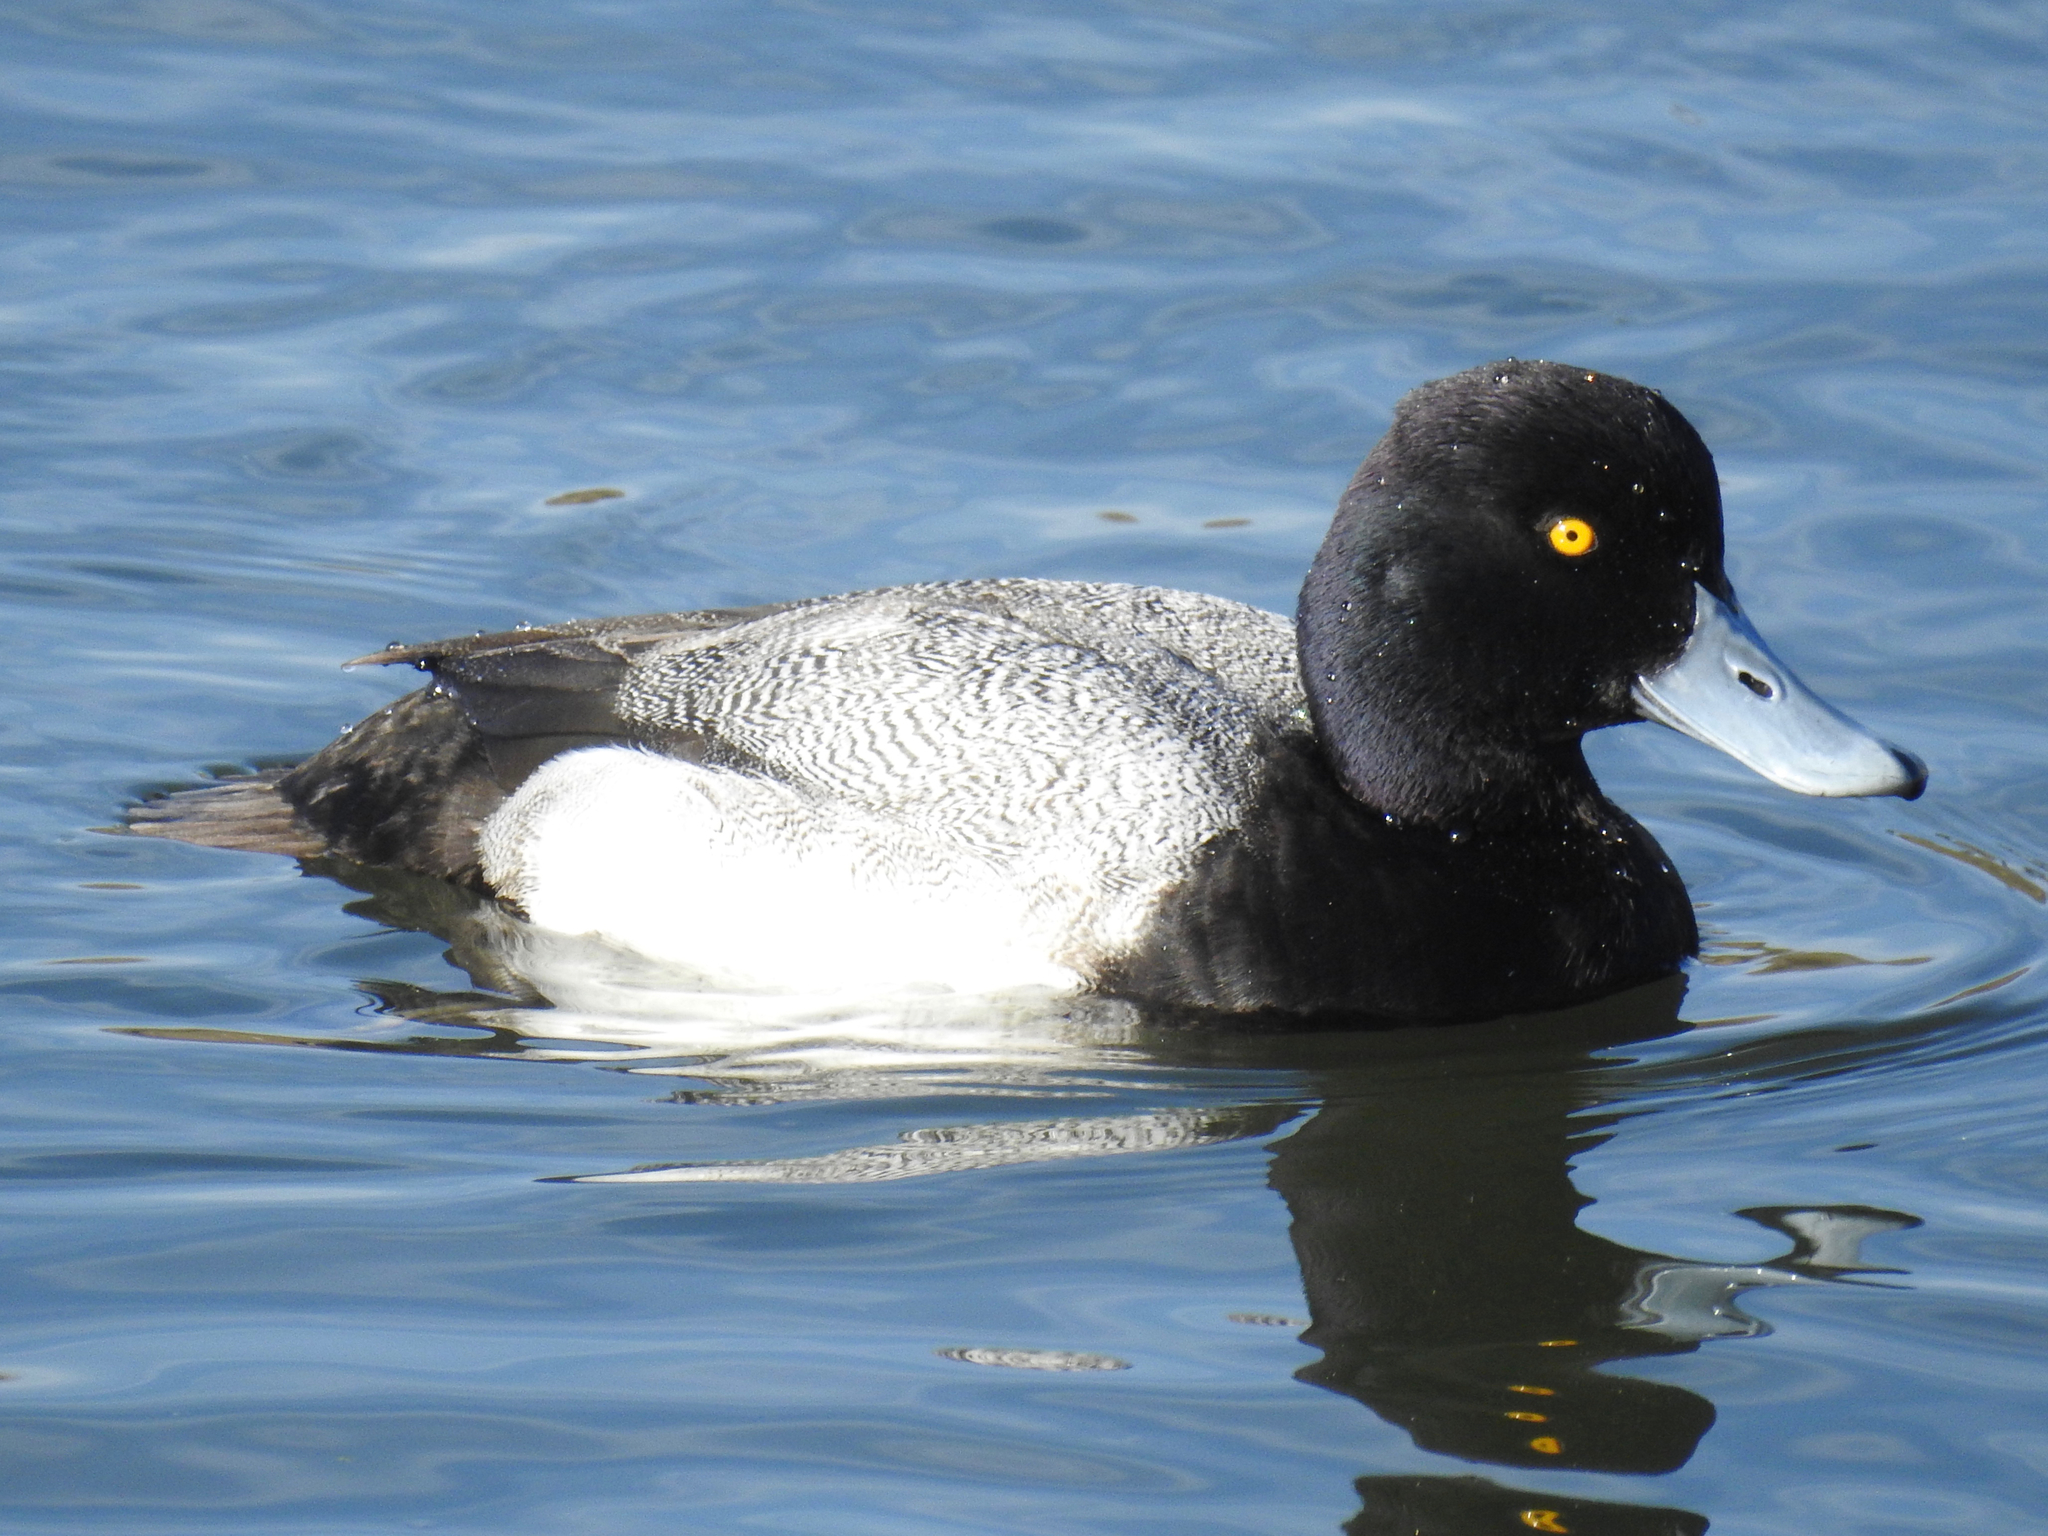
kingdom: Animalia
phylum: Chordata
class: Aves
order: Anseriformes
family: Anatidae
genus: Aythya
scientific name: Aythya affinis
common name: Lesser scaup
